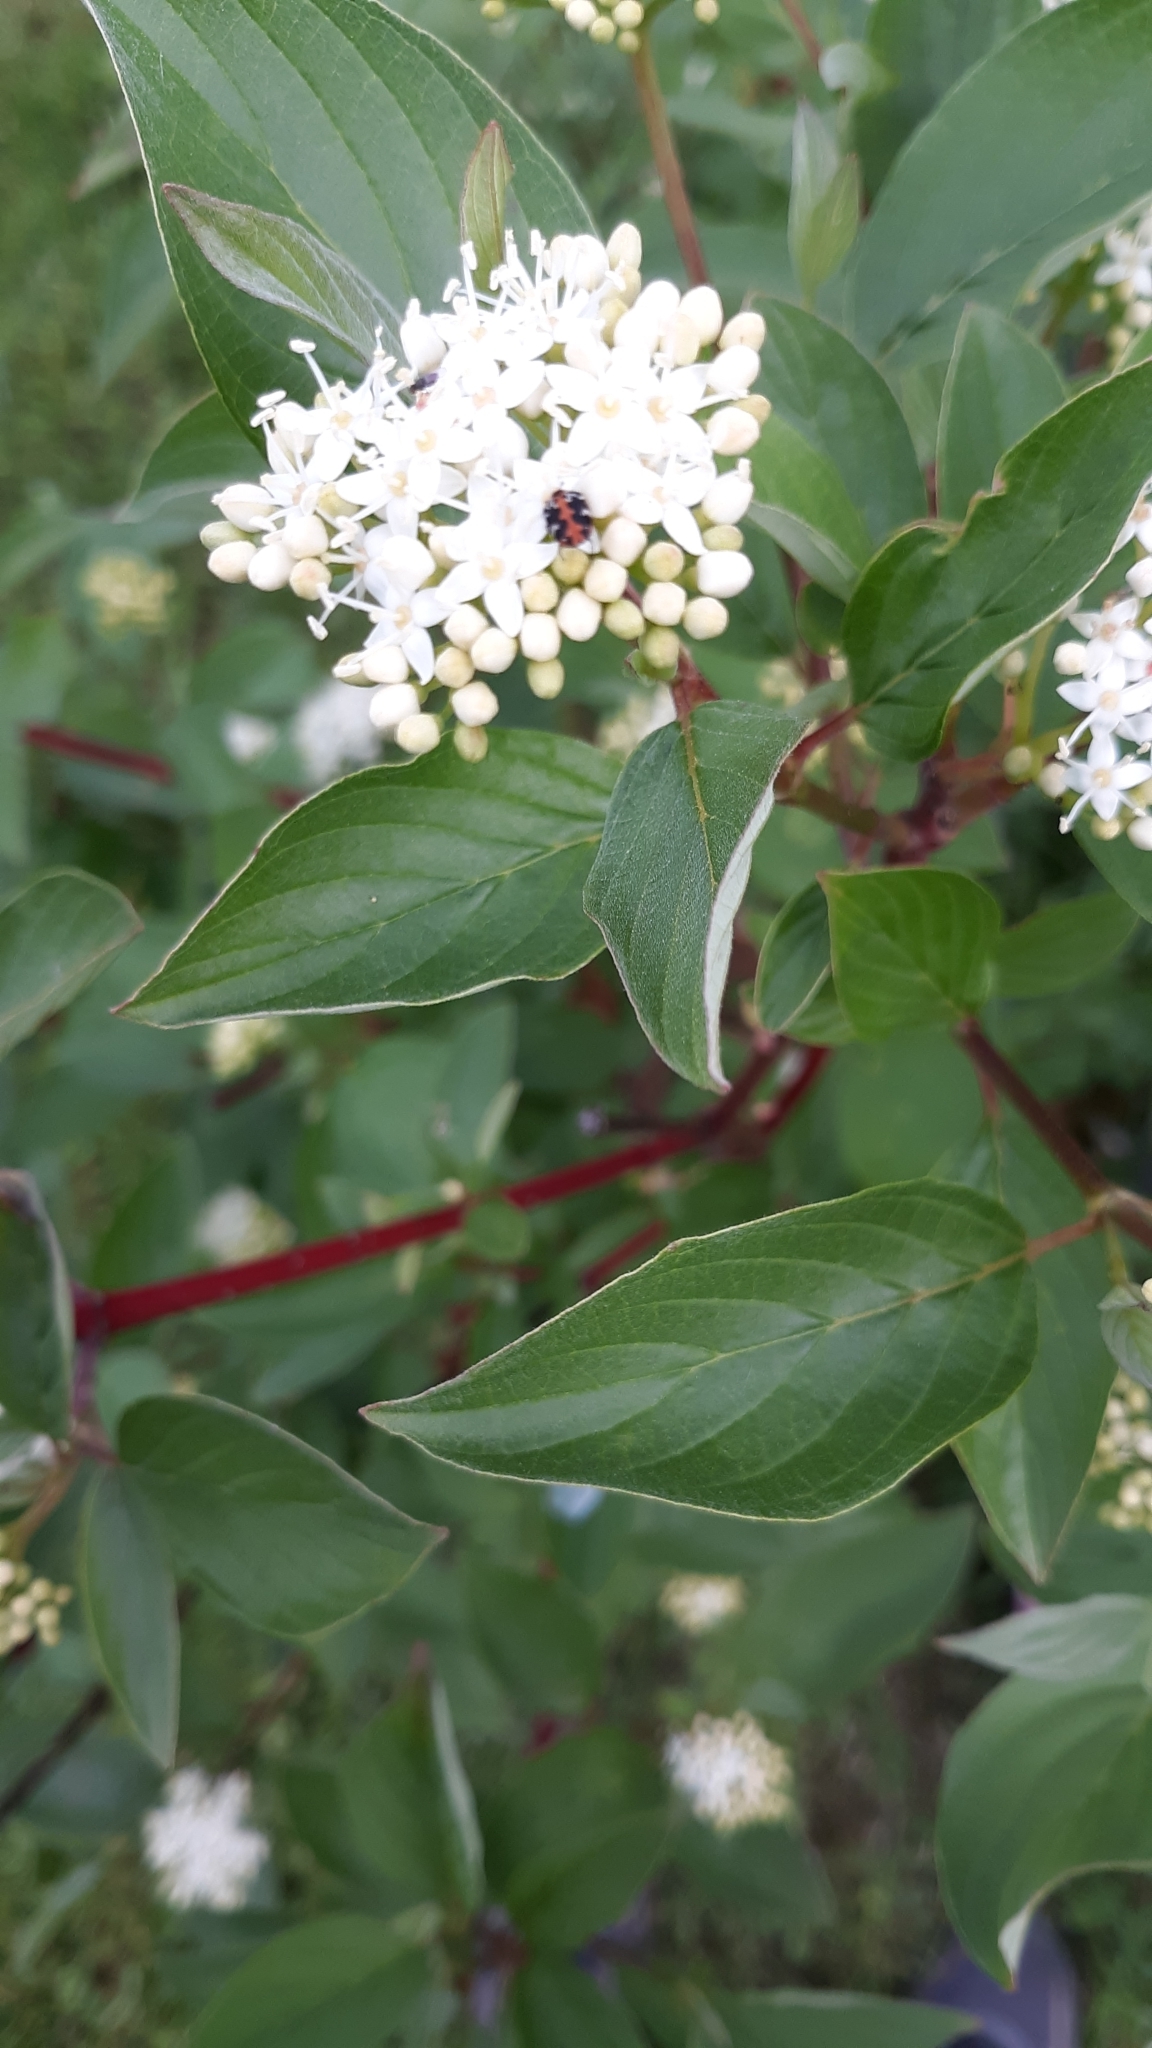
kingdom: Animalia
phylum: Arthropoda
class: Insecta
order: Coleoptera
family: Dermestidae
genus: Anthrenus
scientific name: Anthrenus scrophulariae
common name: Buffalo carpet beetle
